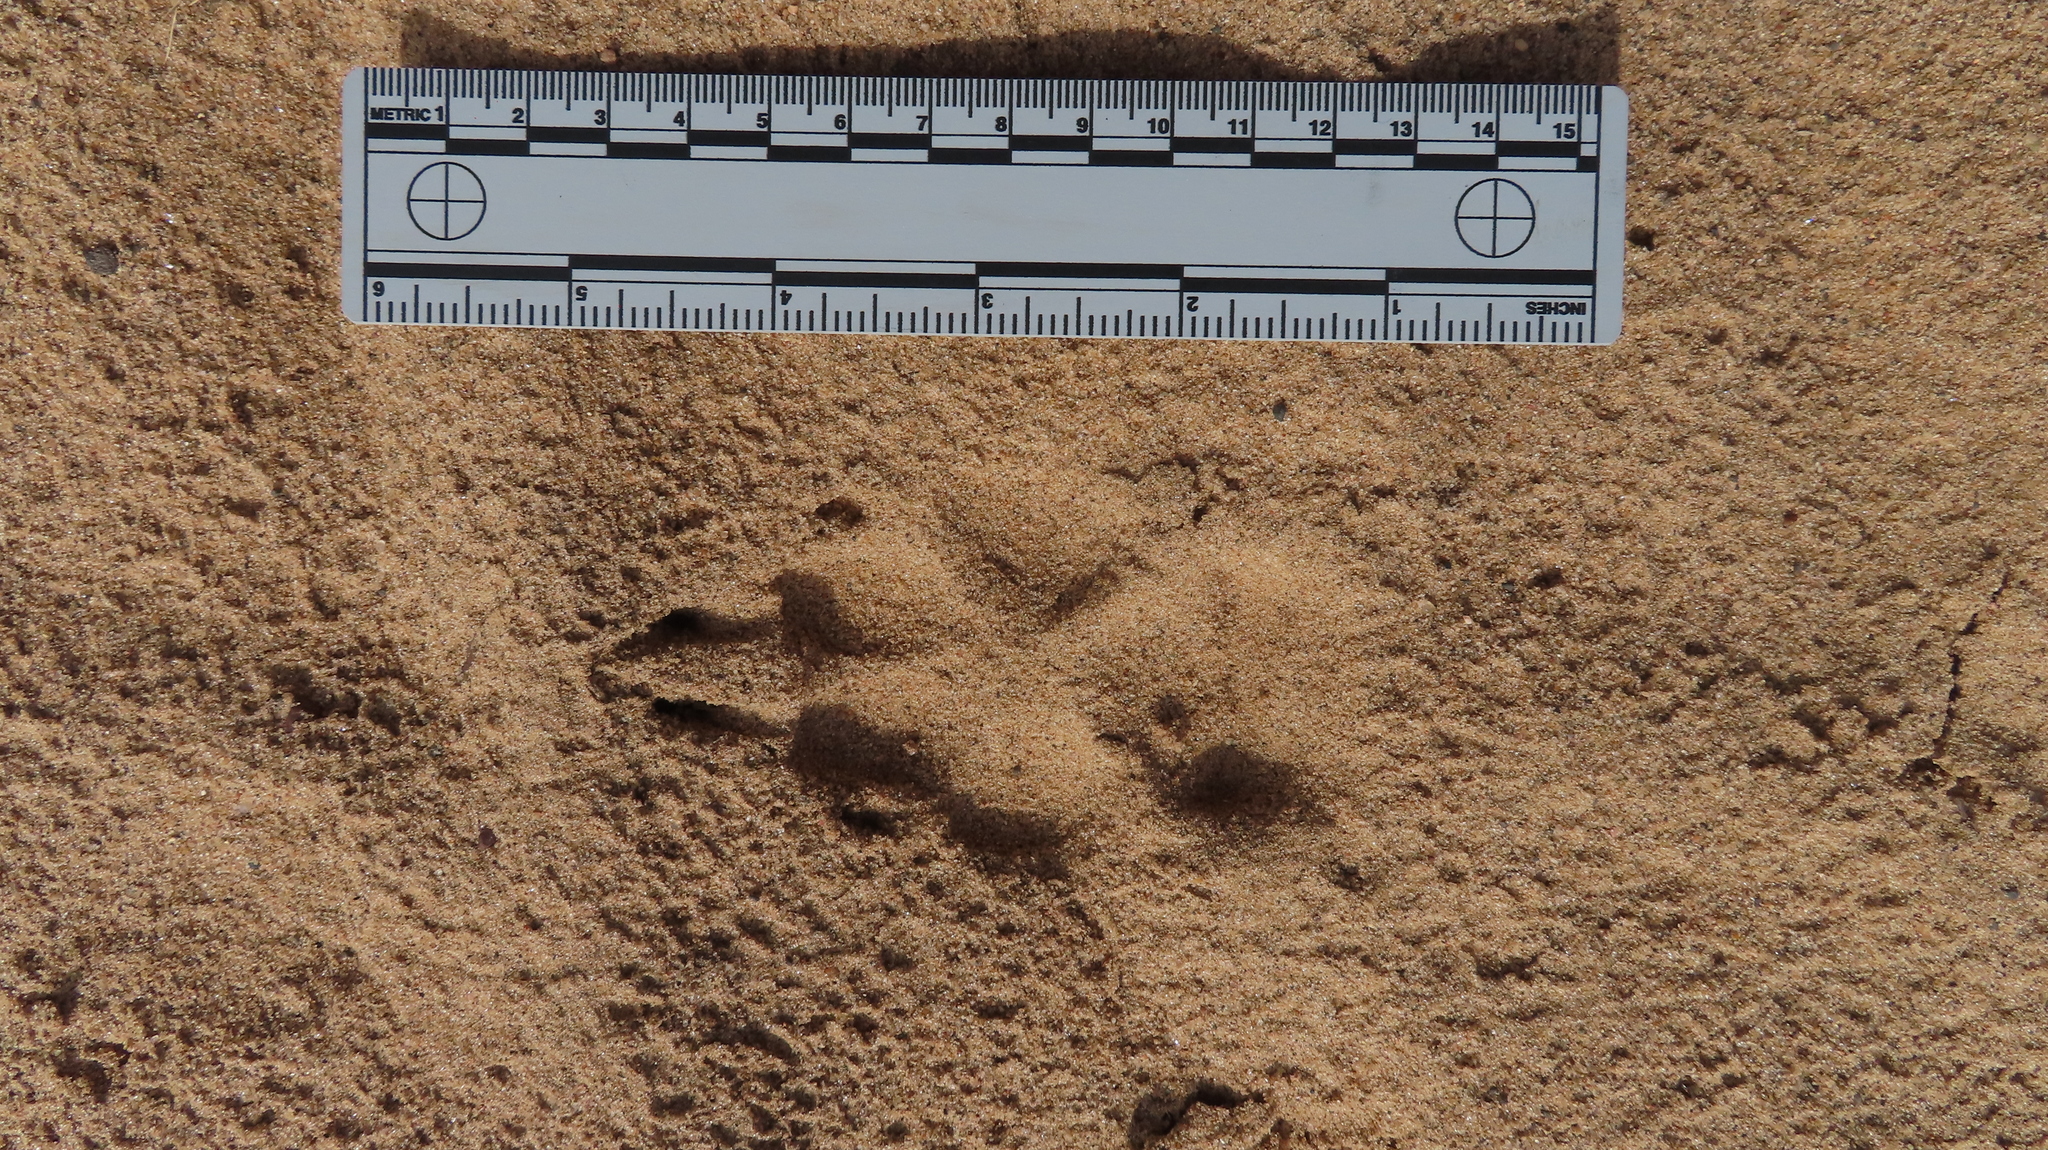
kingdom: Animalia
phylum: Chordata
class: Mammalia
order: Carnivora
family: Canidae
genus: Canis
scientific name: Canis latrans
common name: Coyote
